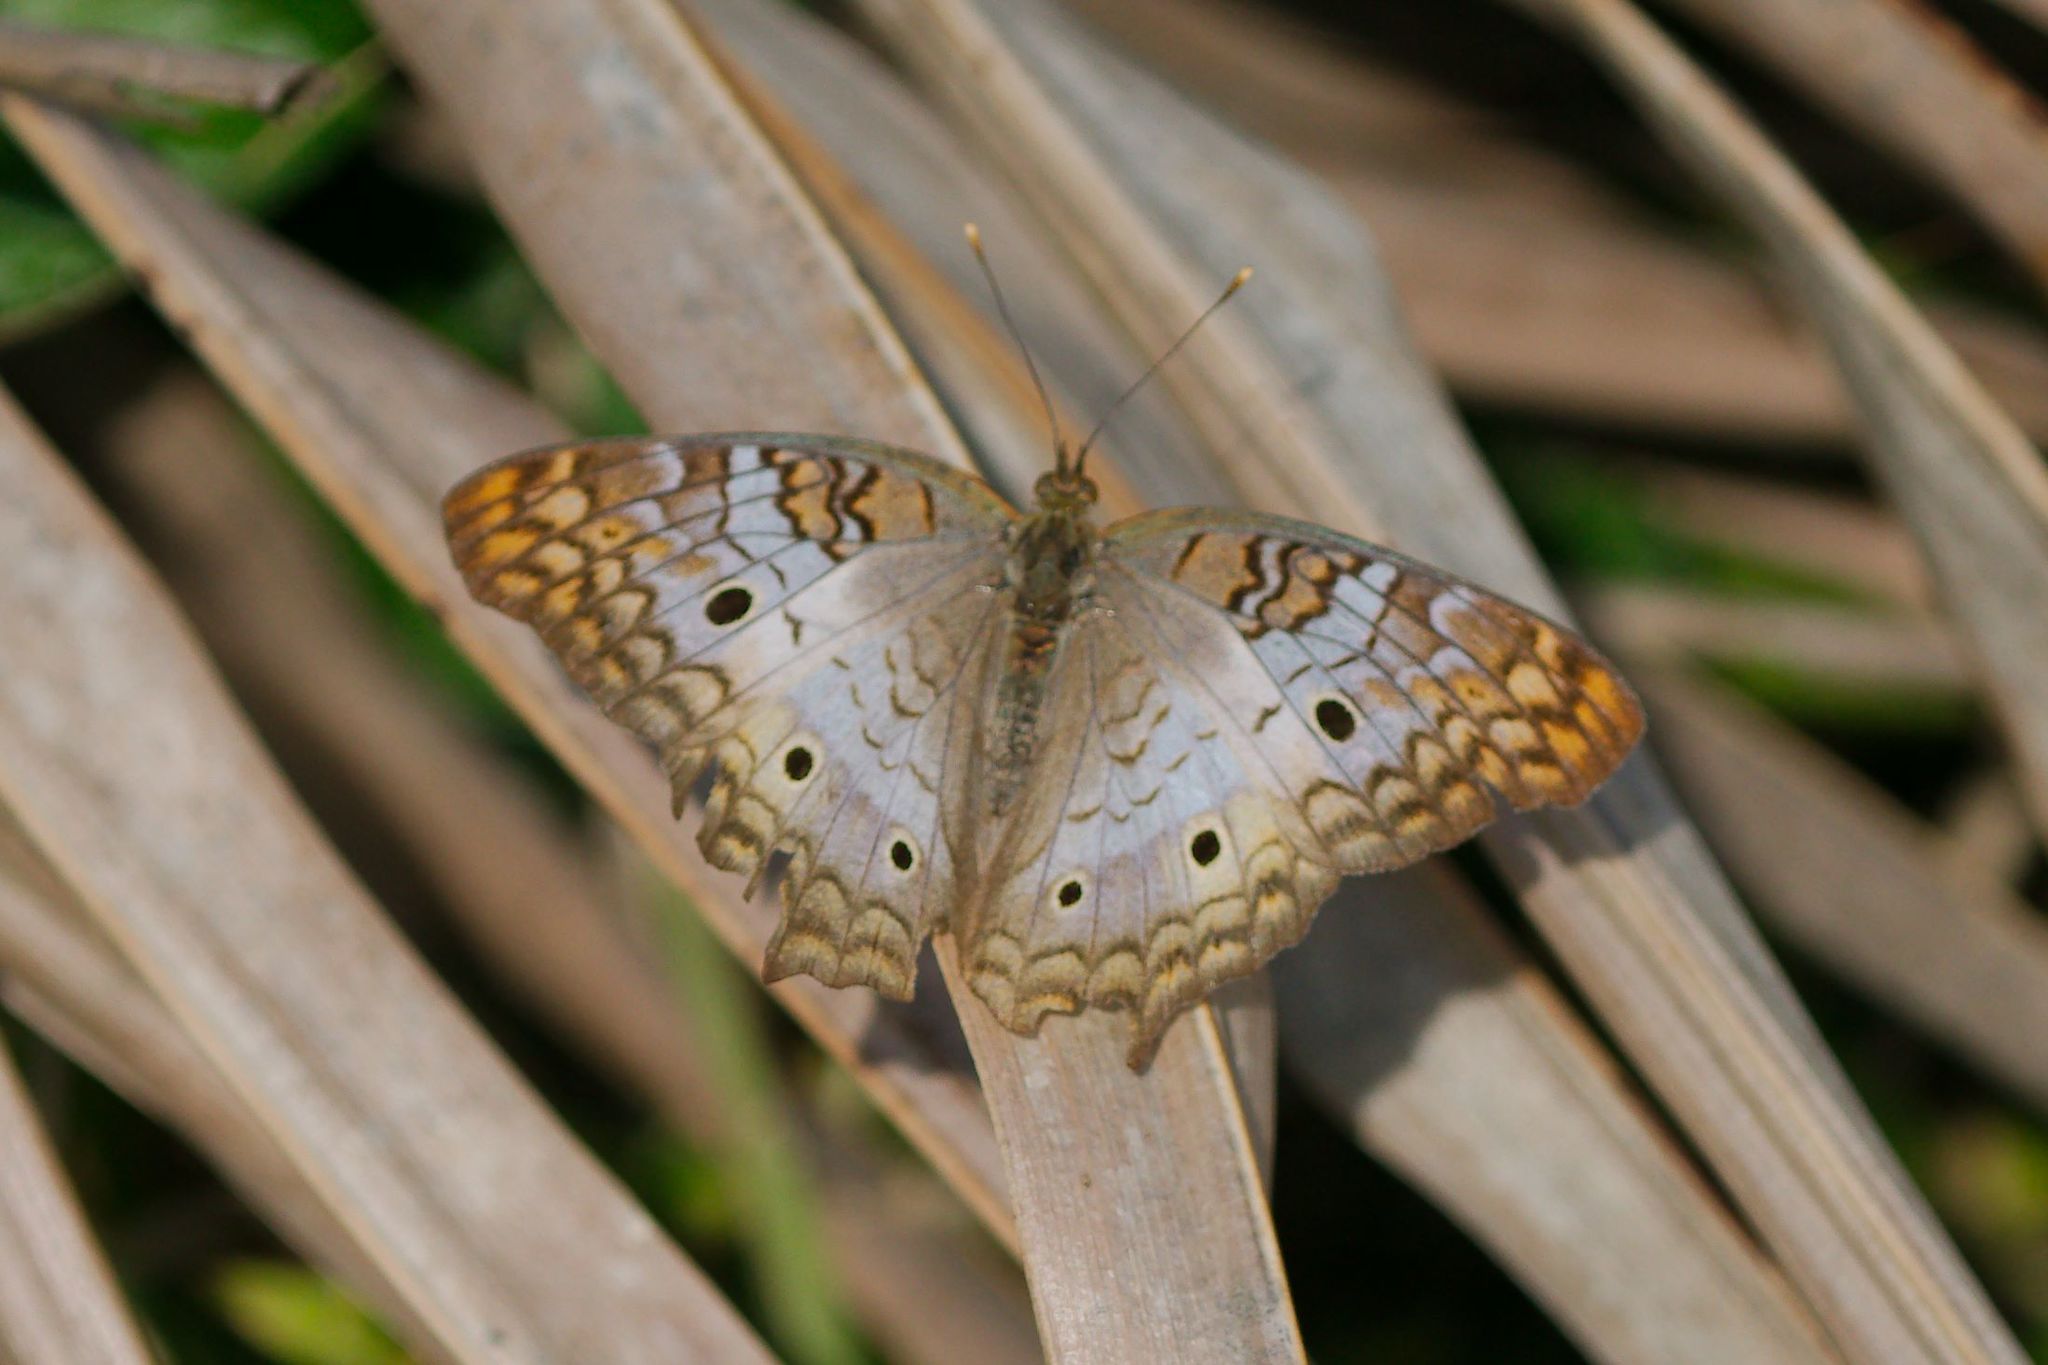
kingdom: Animalia
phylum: Arthropoda
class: Insecta
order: Lepidoptera
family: Nymphalidae
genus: Anartia
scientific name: Anartia jatrophae
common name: White peacock
